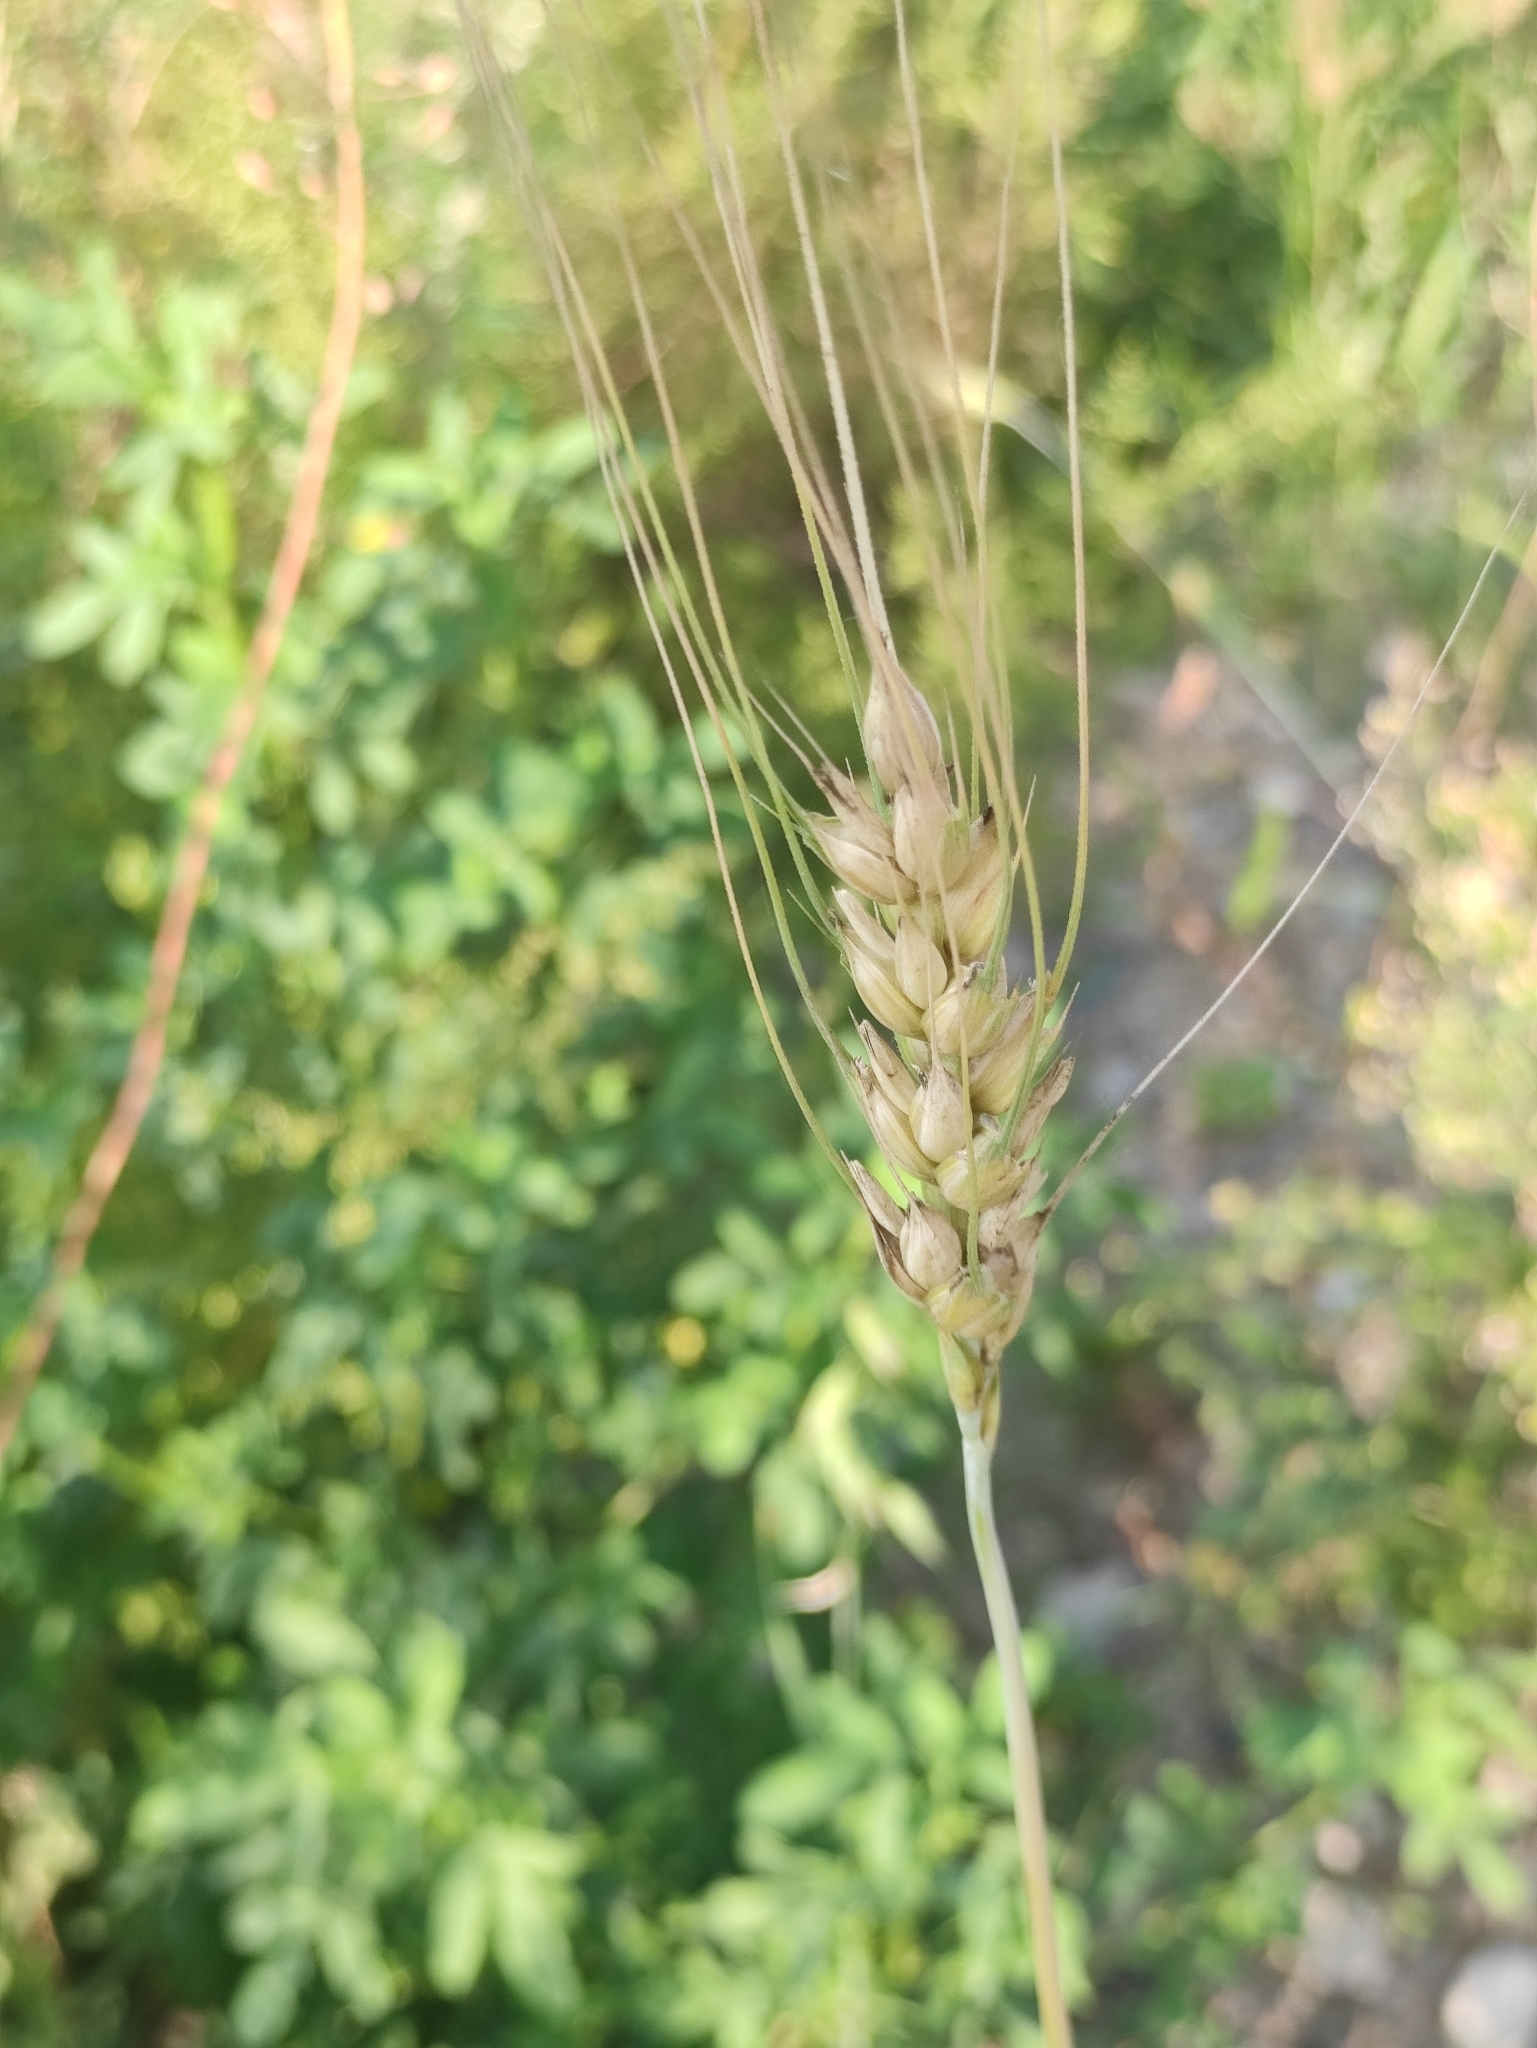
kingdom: Plantae
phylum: Tracheophyta
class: Liliopsida
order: Poales
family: Poaceae
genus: Triticum
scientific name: Triticum aestivum
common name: Common wheat
